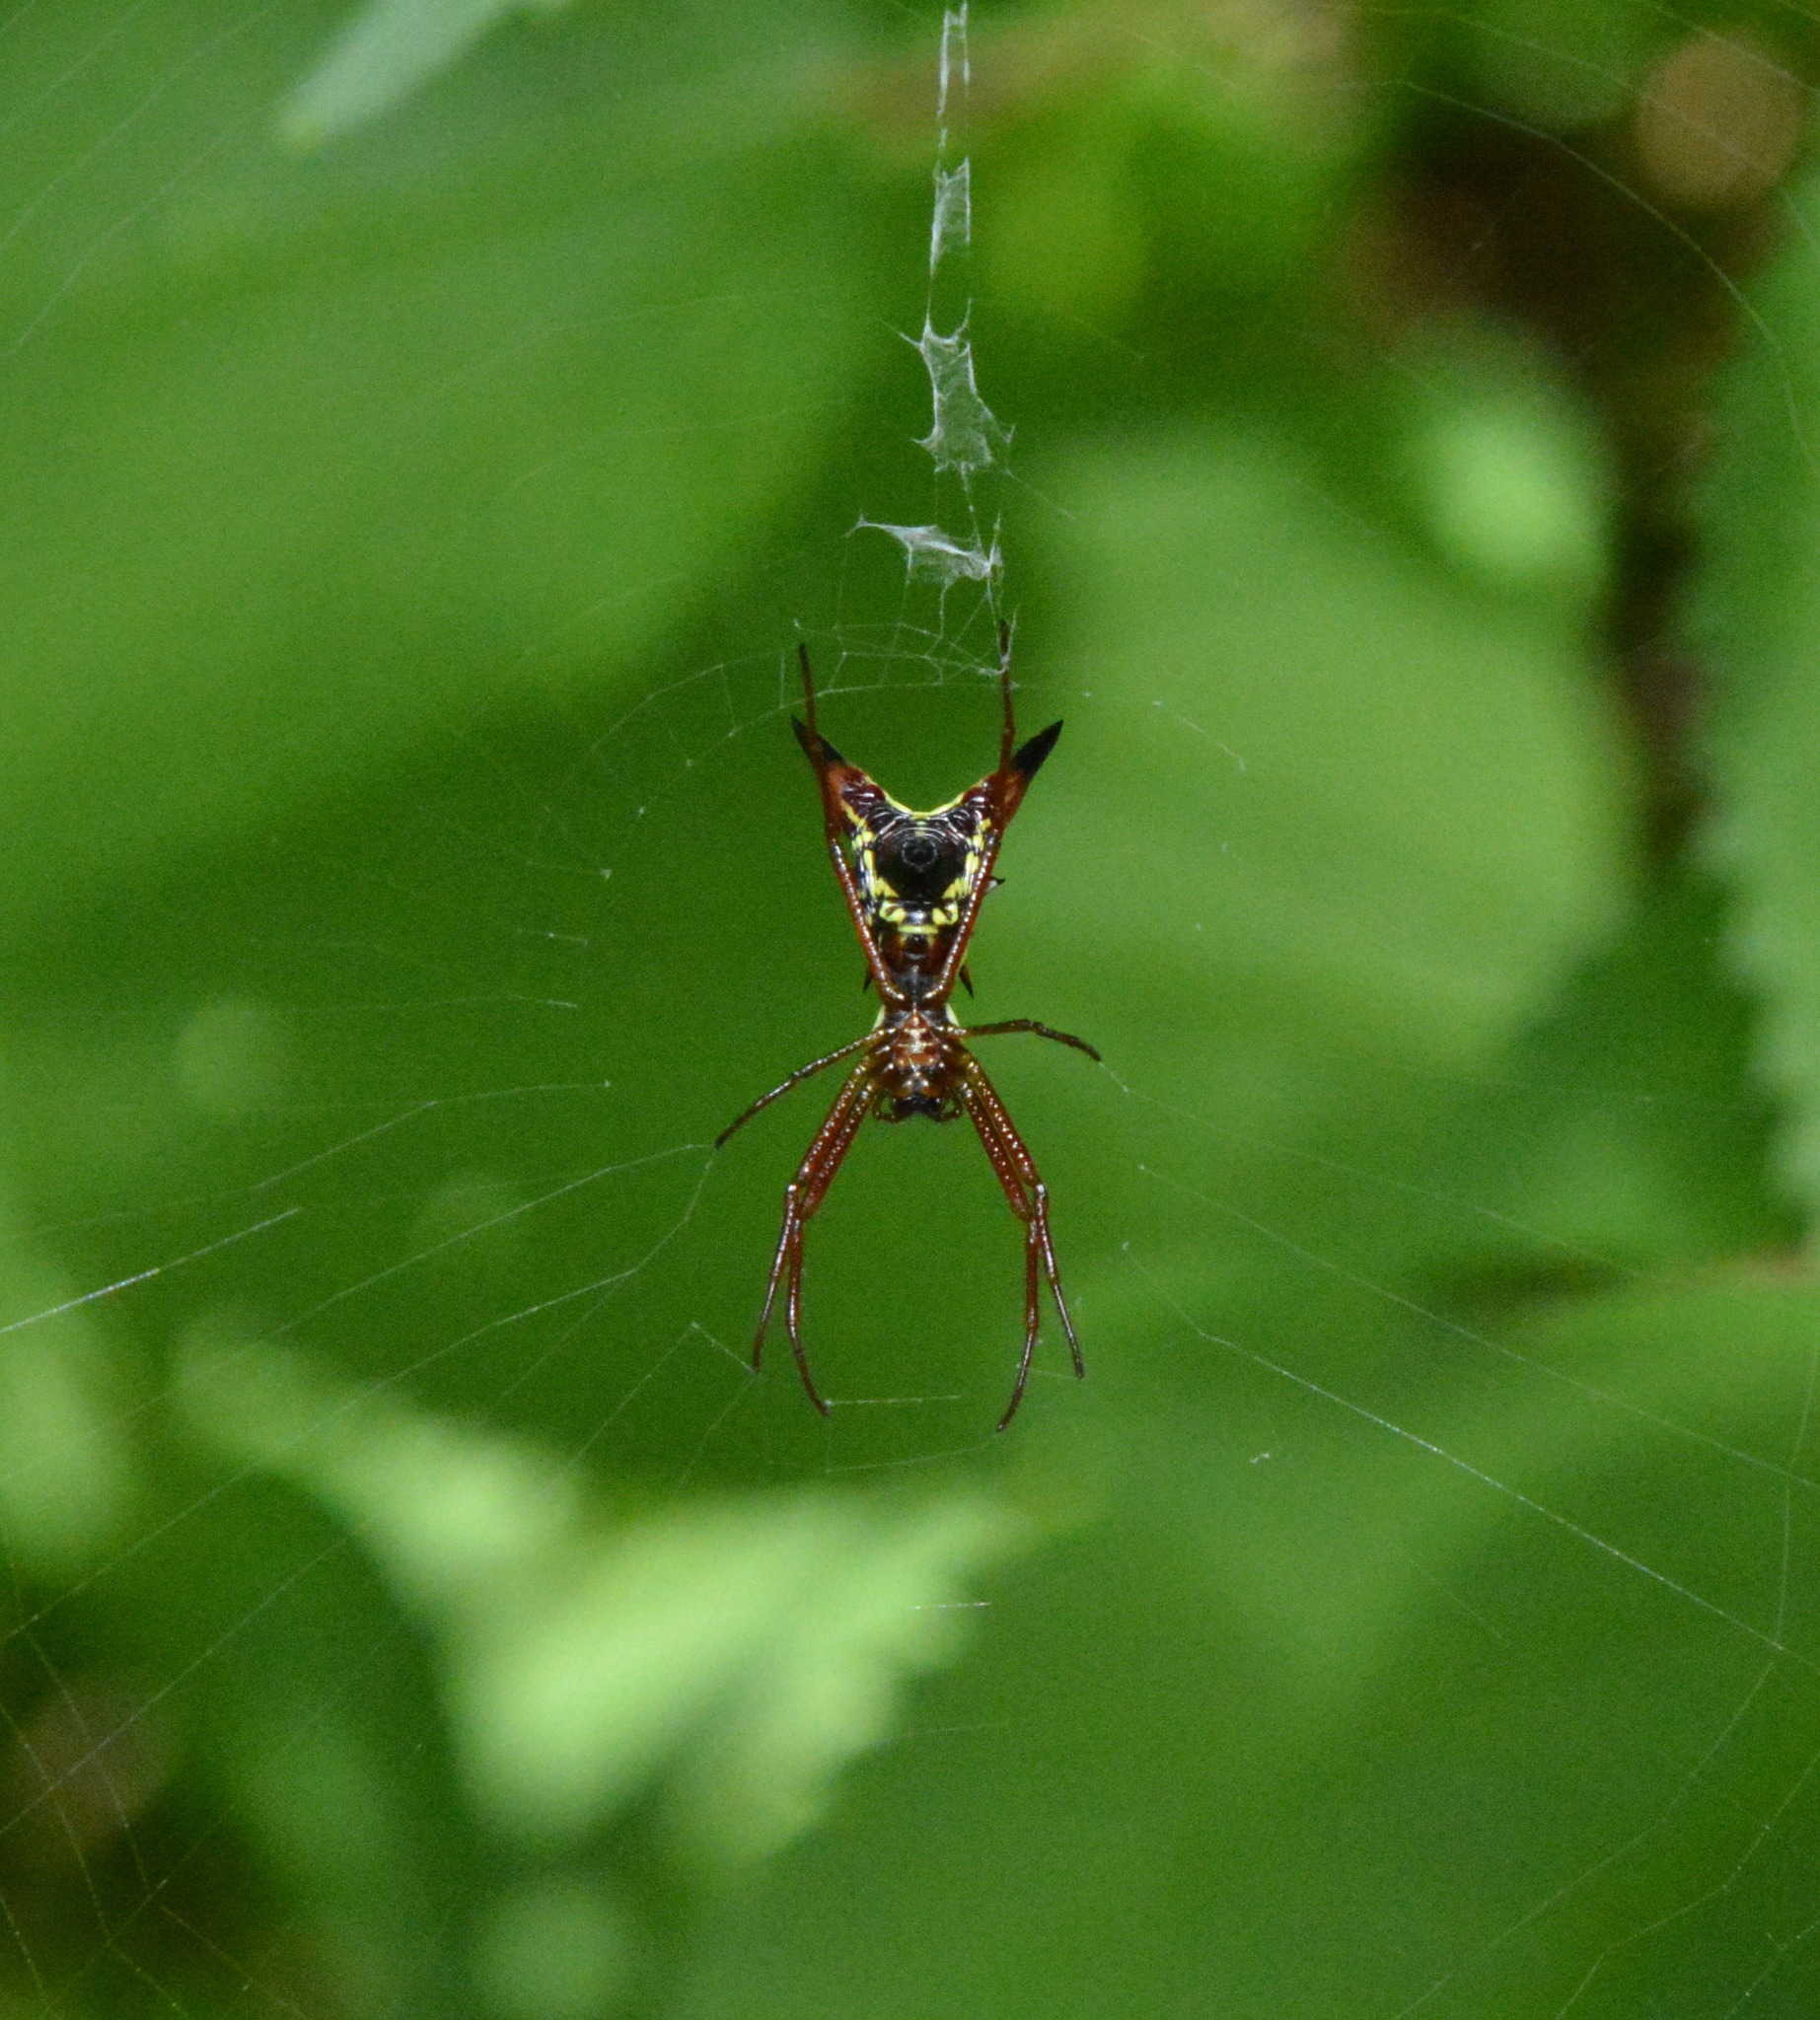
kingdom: Animalia
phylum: Arthropoda
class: Arachnida
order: Araneae
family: Araneidae
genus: Micrathena
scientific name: Micrathena sagittata
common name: Orb weavers
